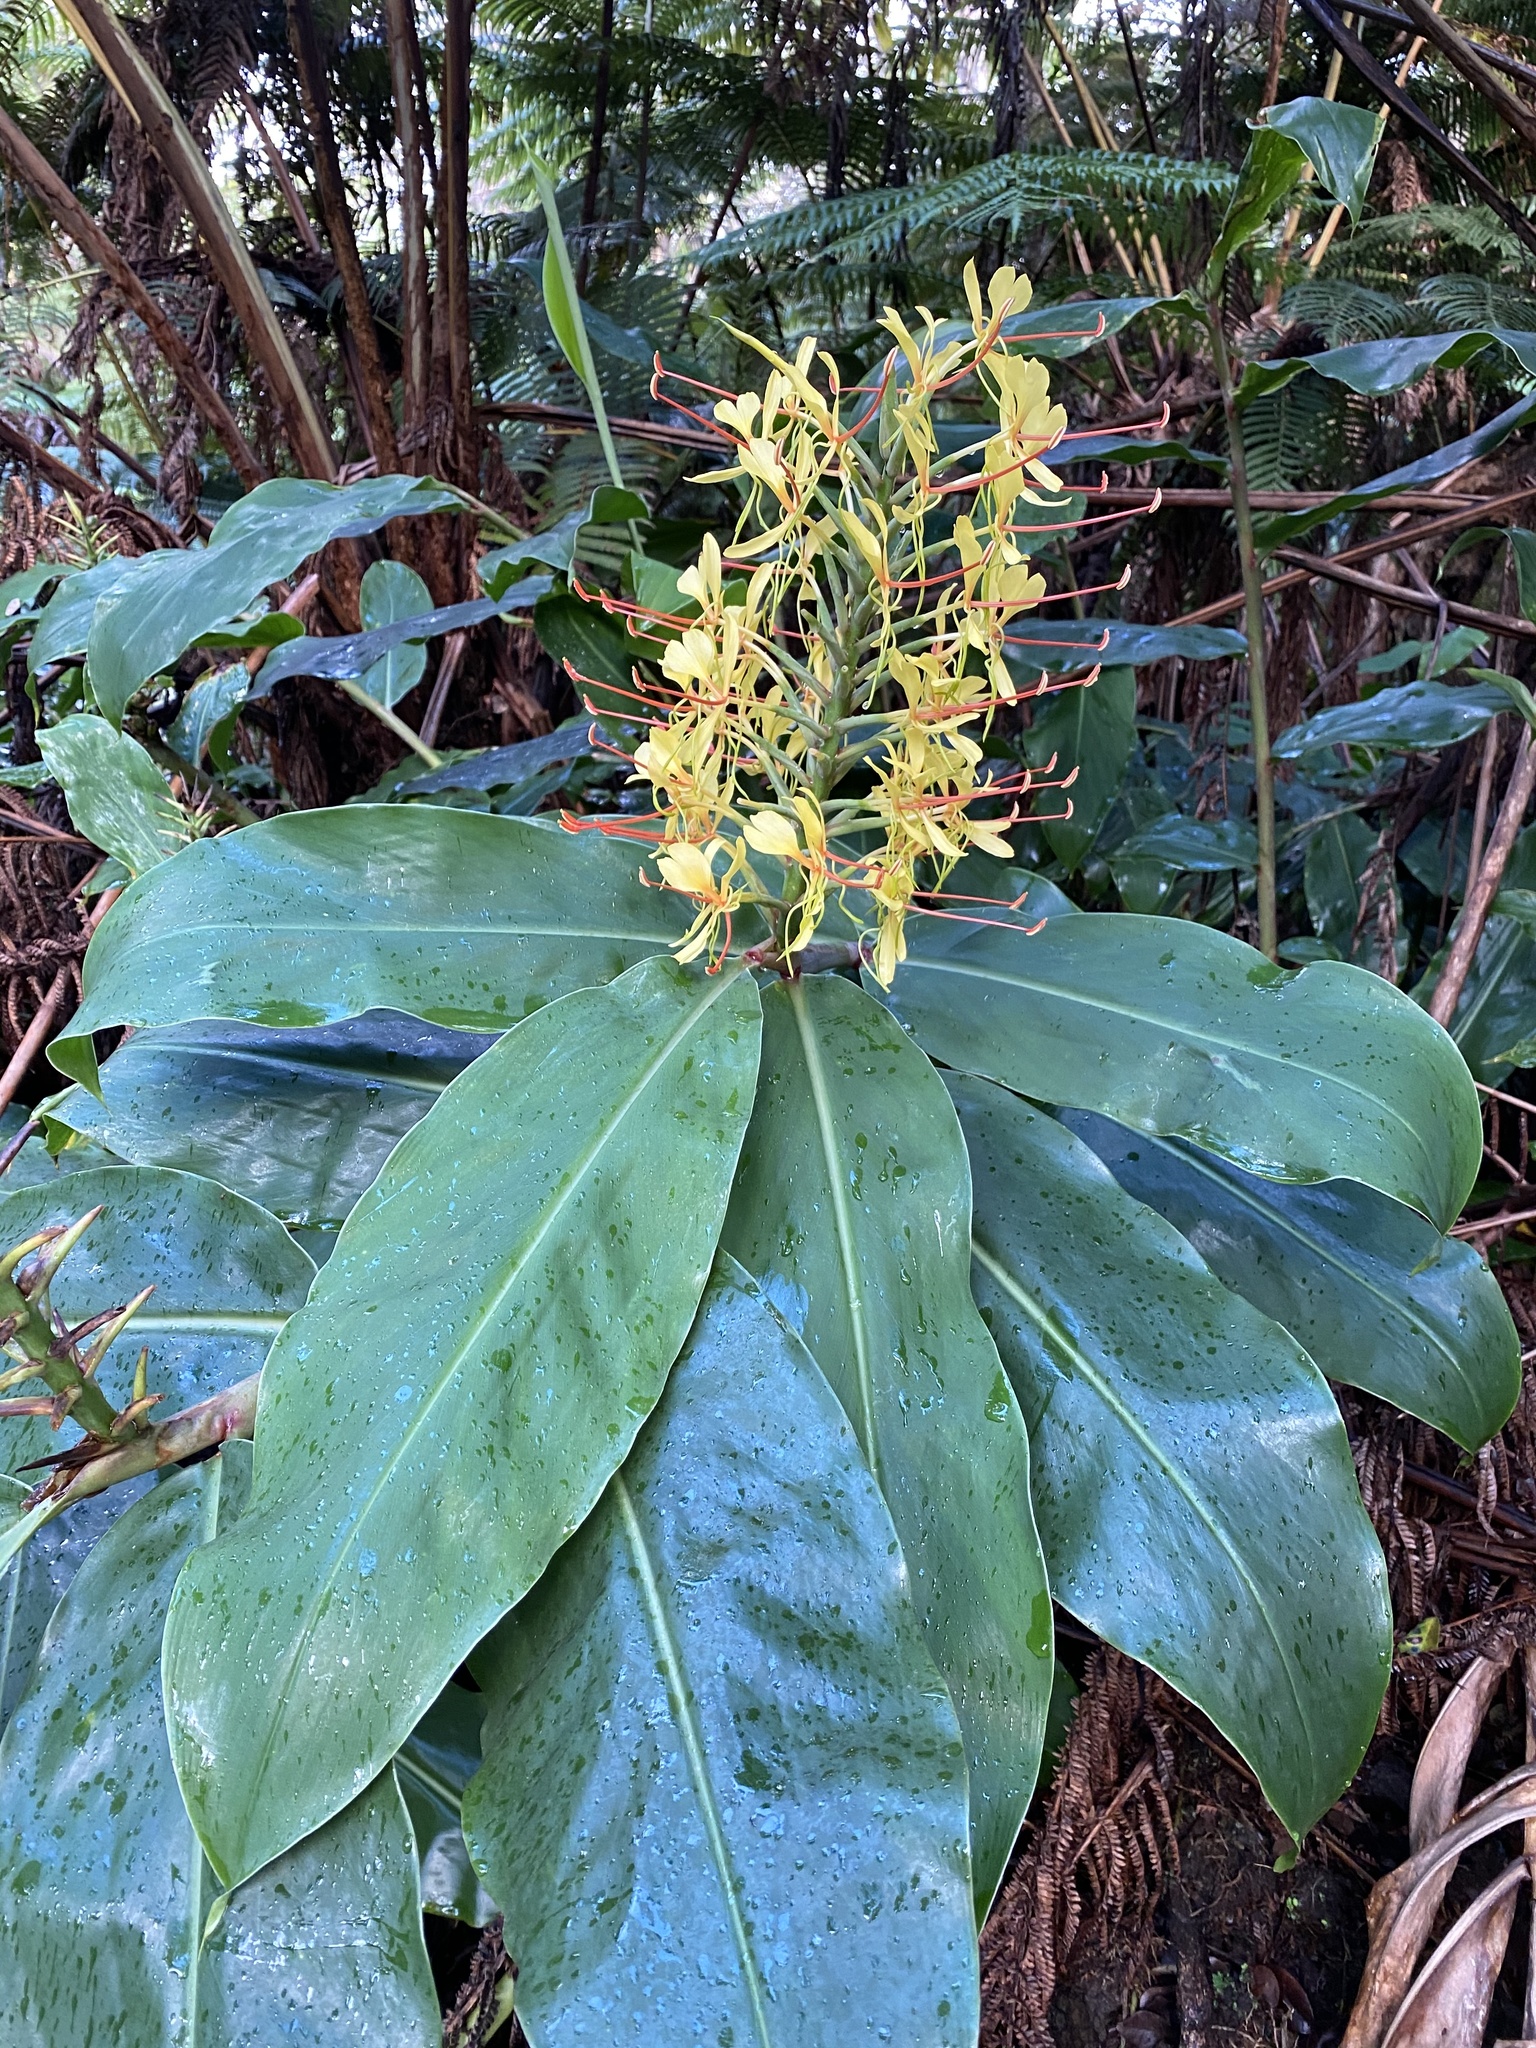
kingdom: Plantae
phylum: Tracheophyta
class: Liliopsida
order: Zingiberales
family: Zingiberaceae
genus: Hedychium
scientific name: Hedychium gardnerianum
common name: Himalayan ginger
